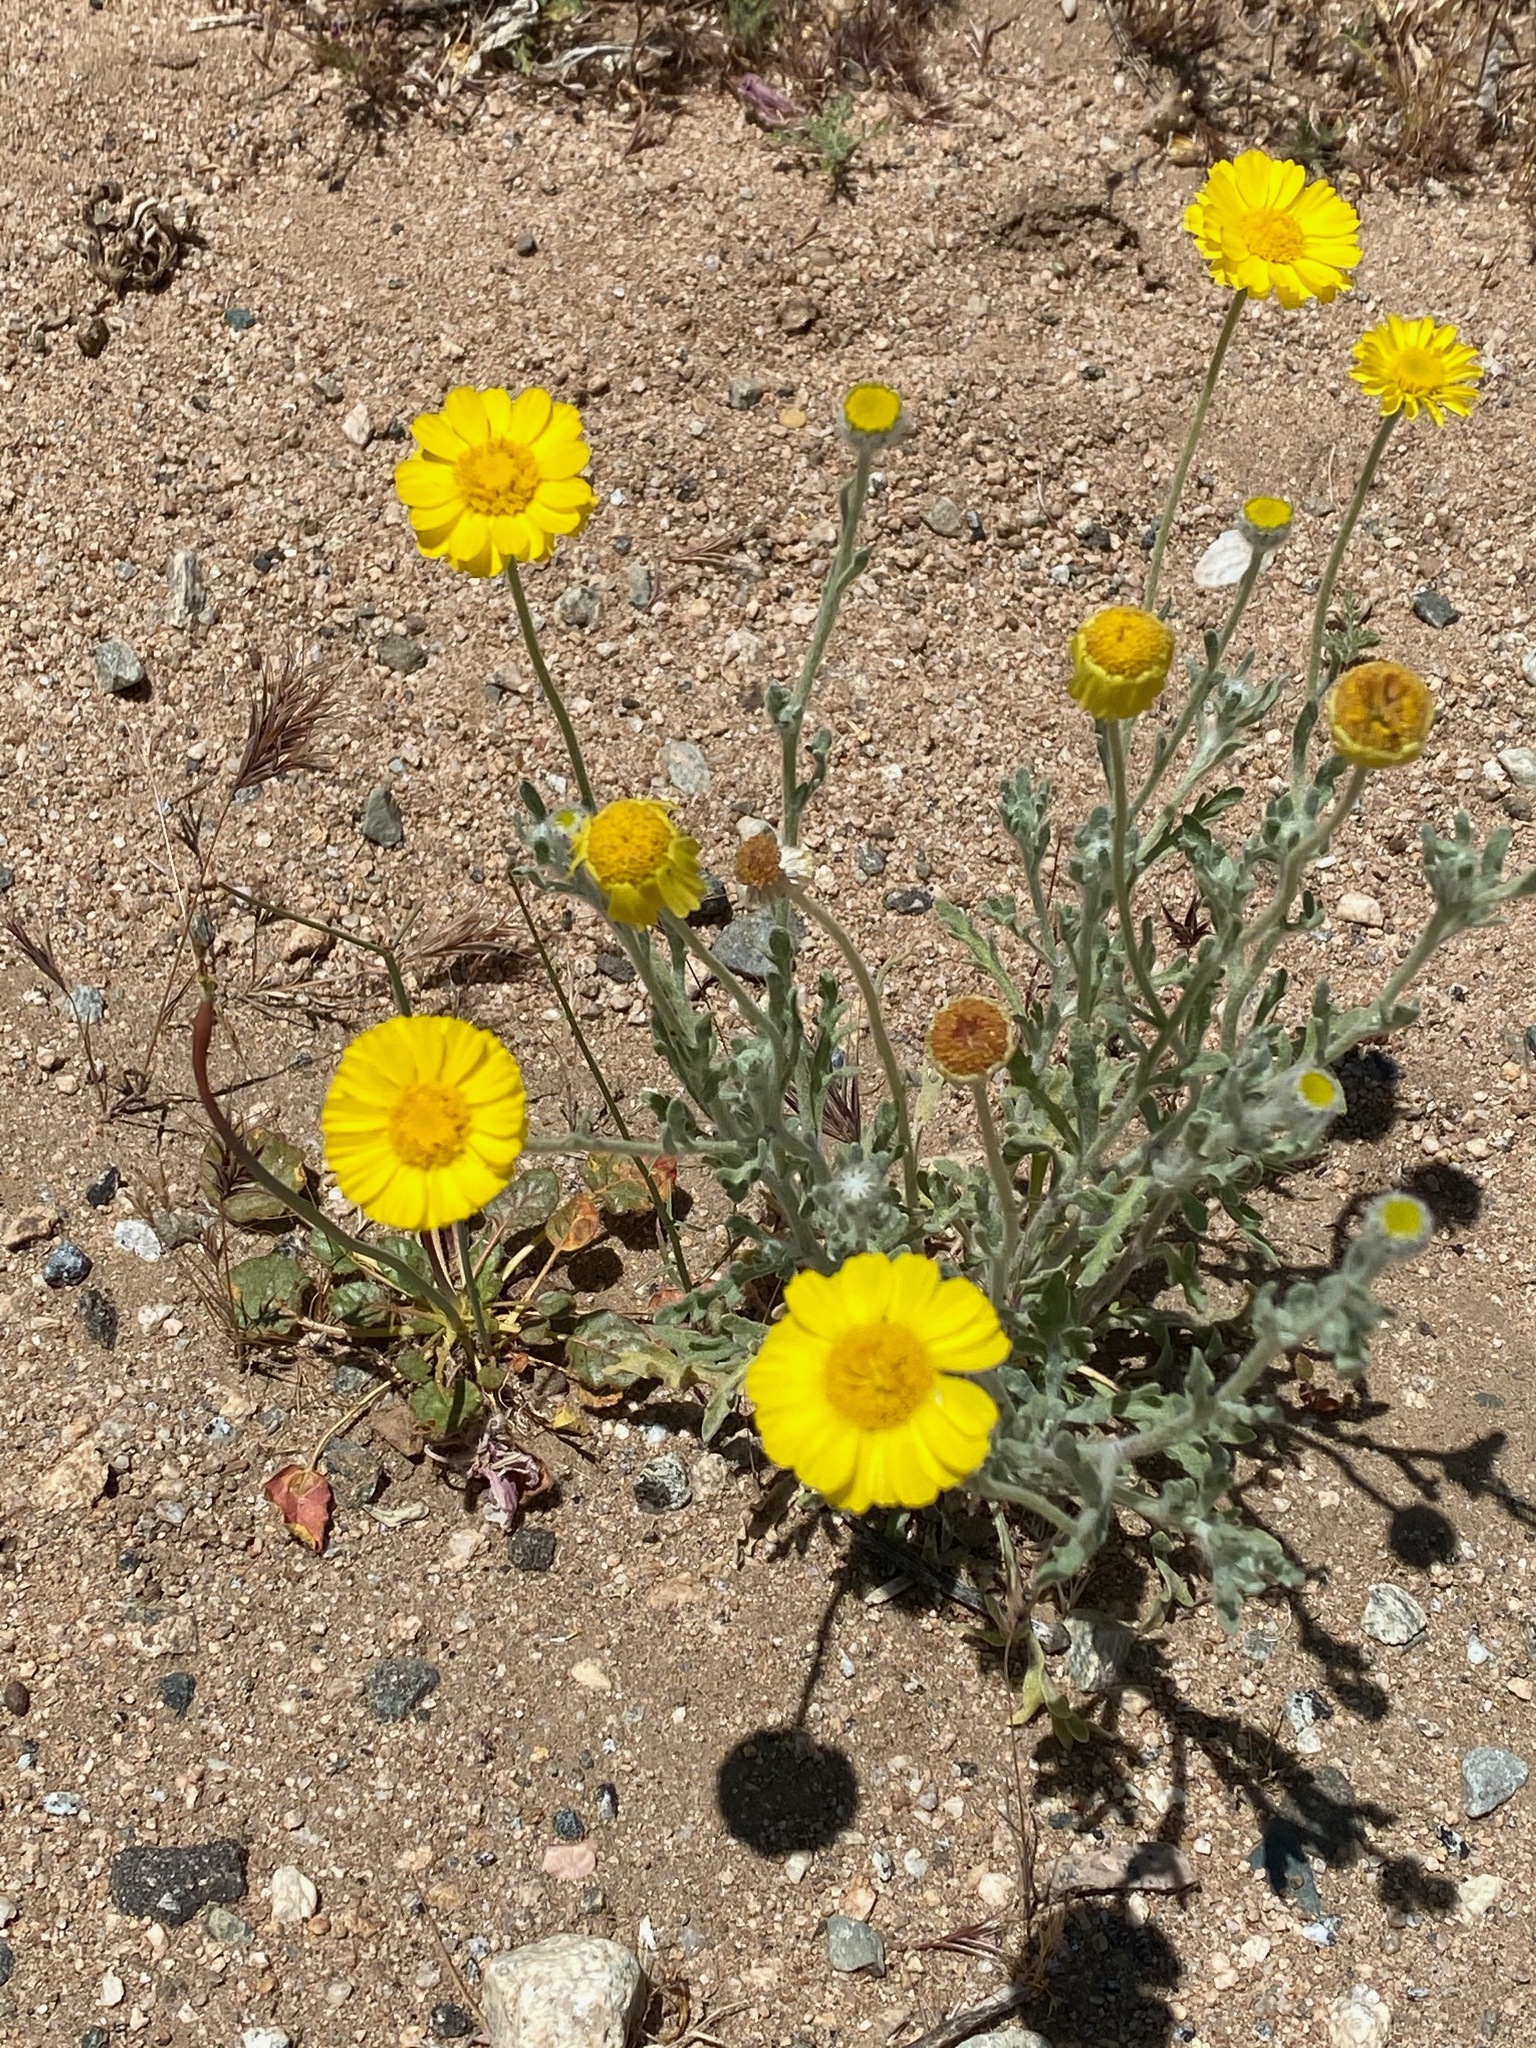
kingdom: Plantae
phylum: Tracheophyta
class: Magnoliopsida
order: Asterales
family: Asteraceae
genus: Baileya
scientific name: Baileya multiradiata
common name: Desert-marigold
